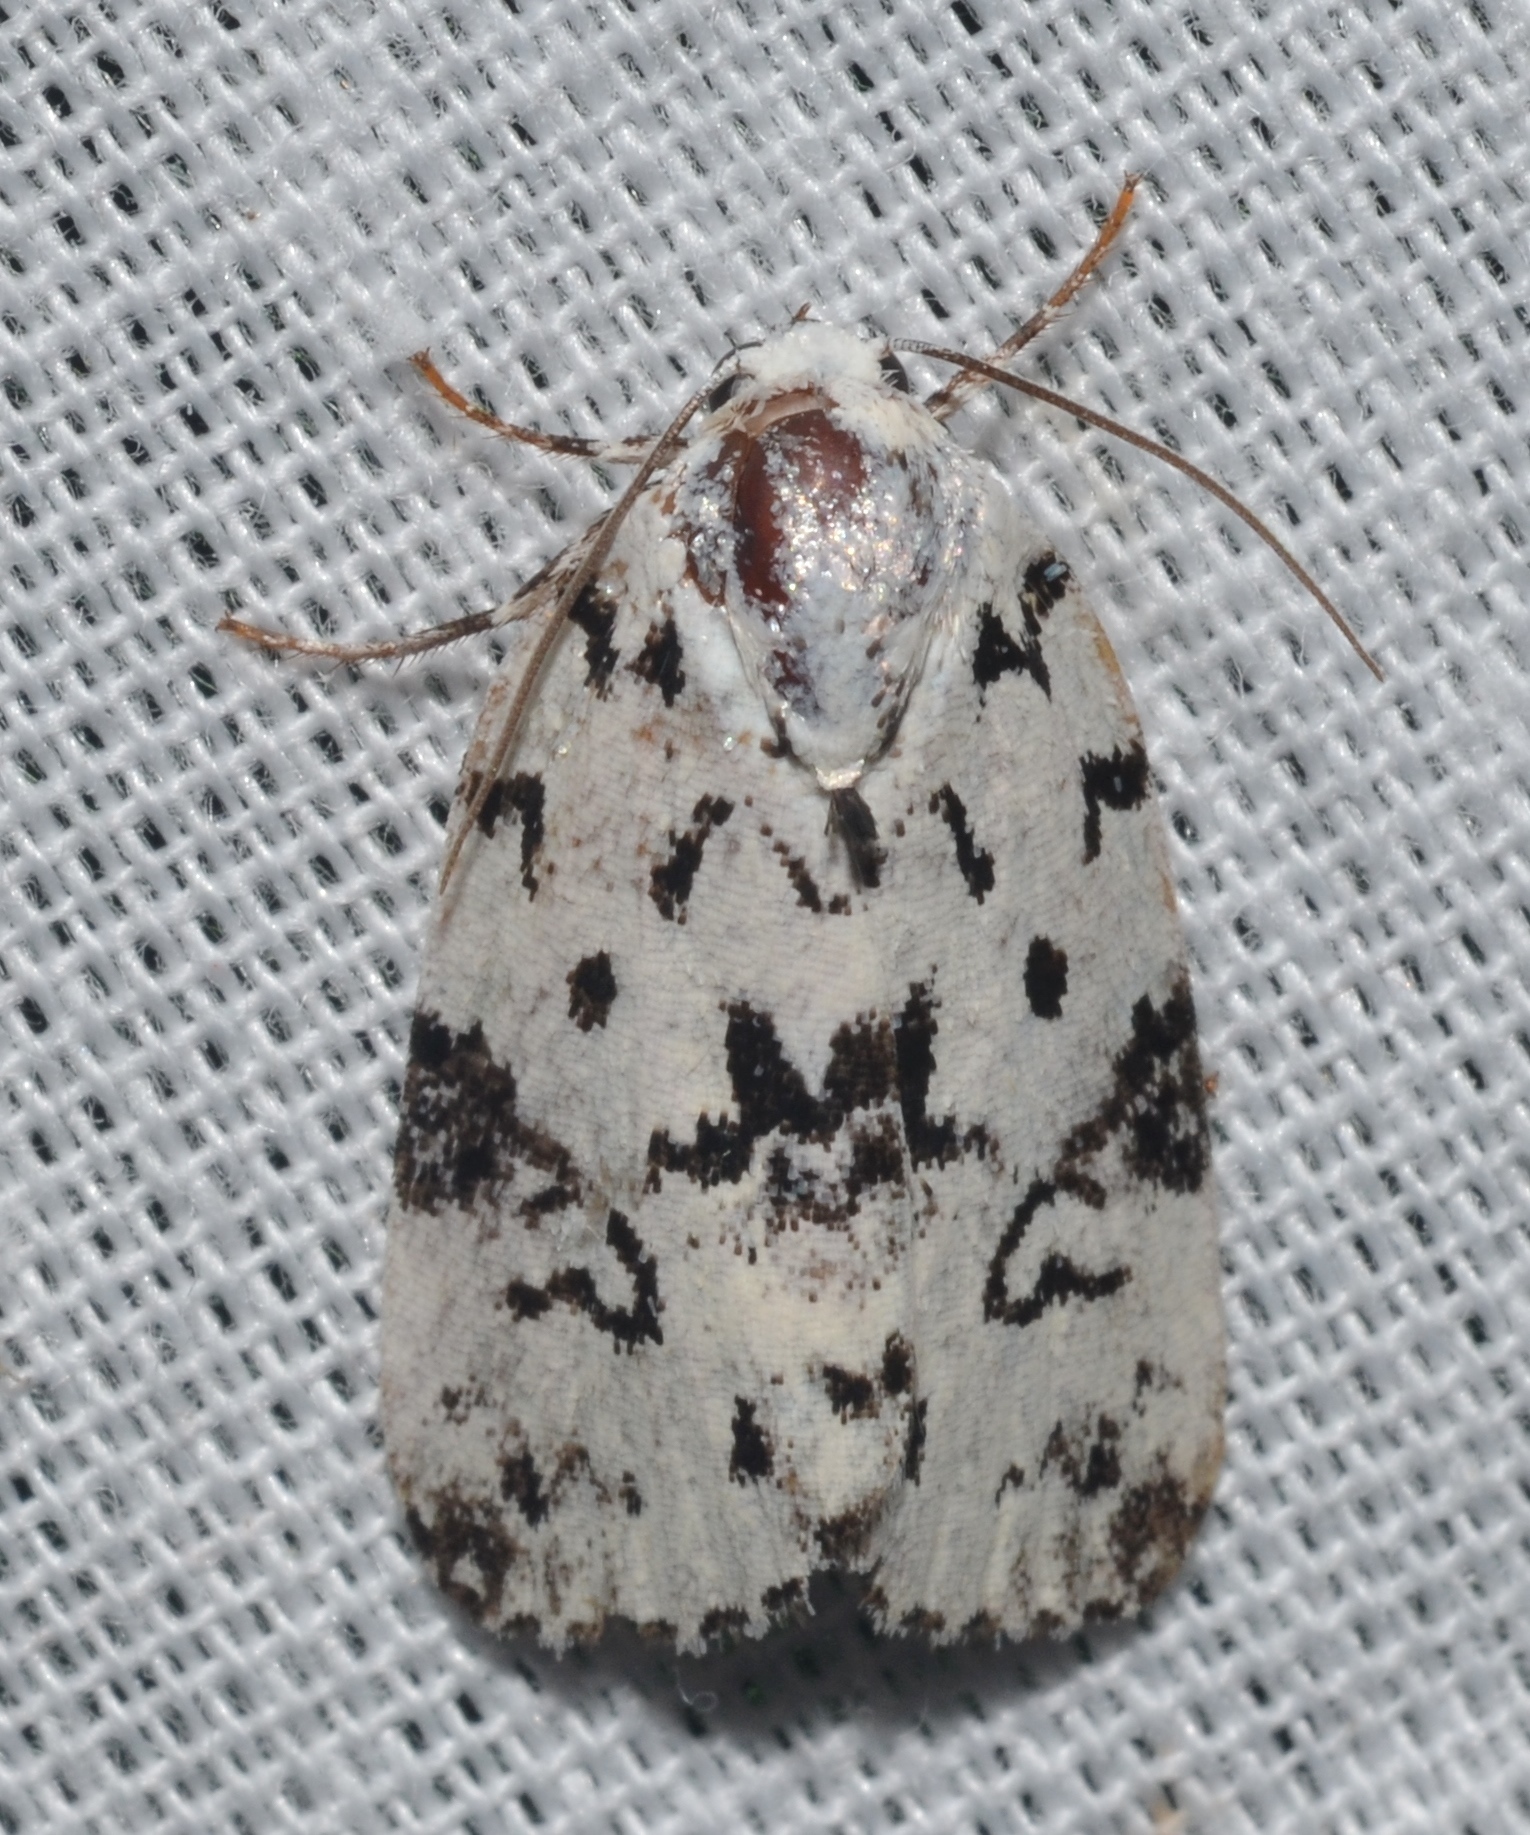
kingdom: Animalia
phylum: Arthropoda
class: Insecta
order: Lepidoptera
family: Noctuidae
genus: Polygrammate
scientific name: Polygrammate hebraeicum
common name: Hebrew moth
